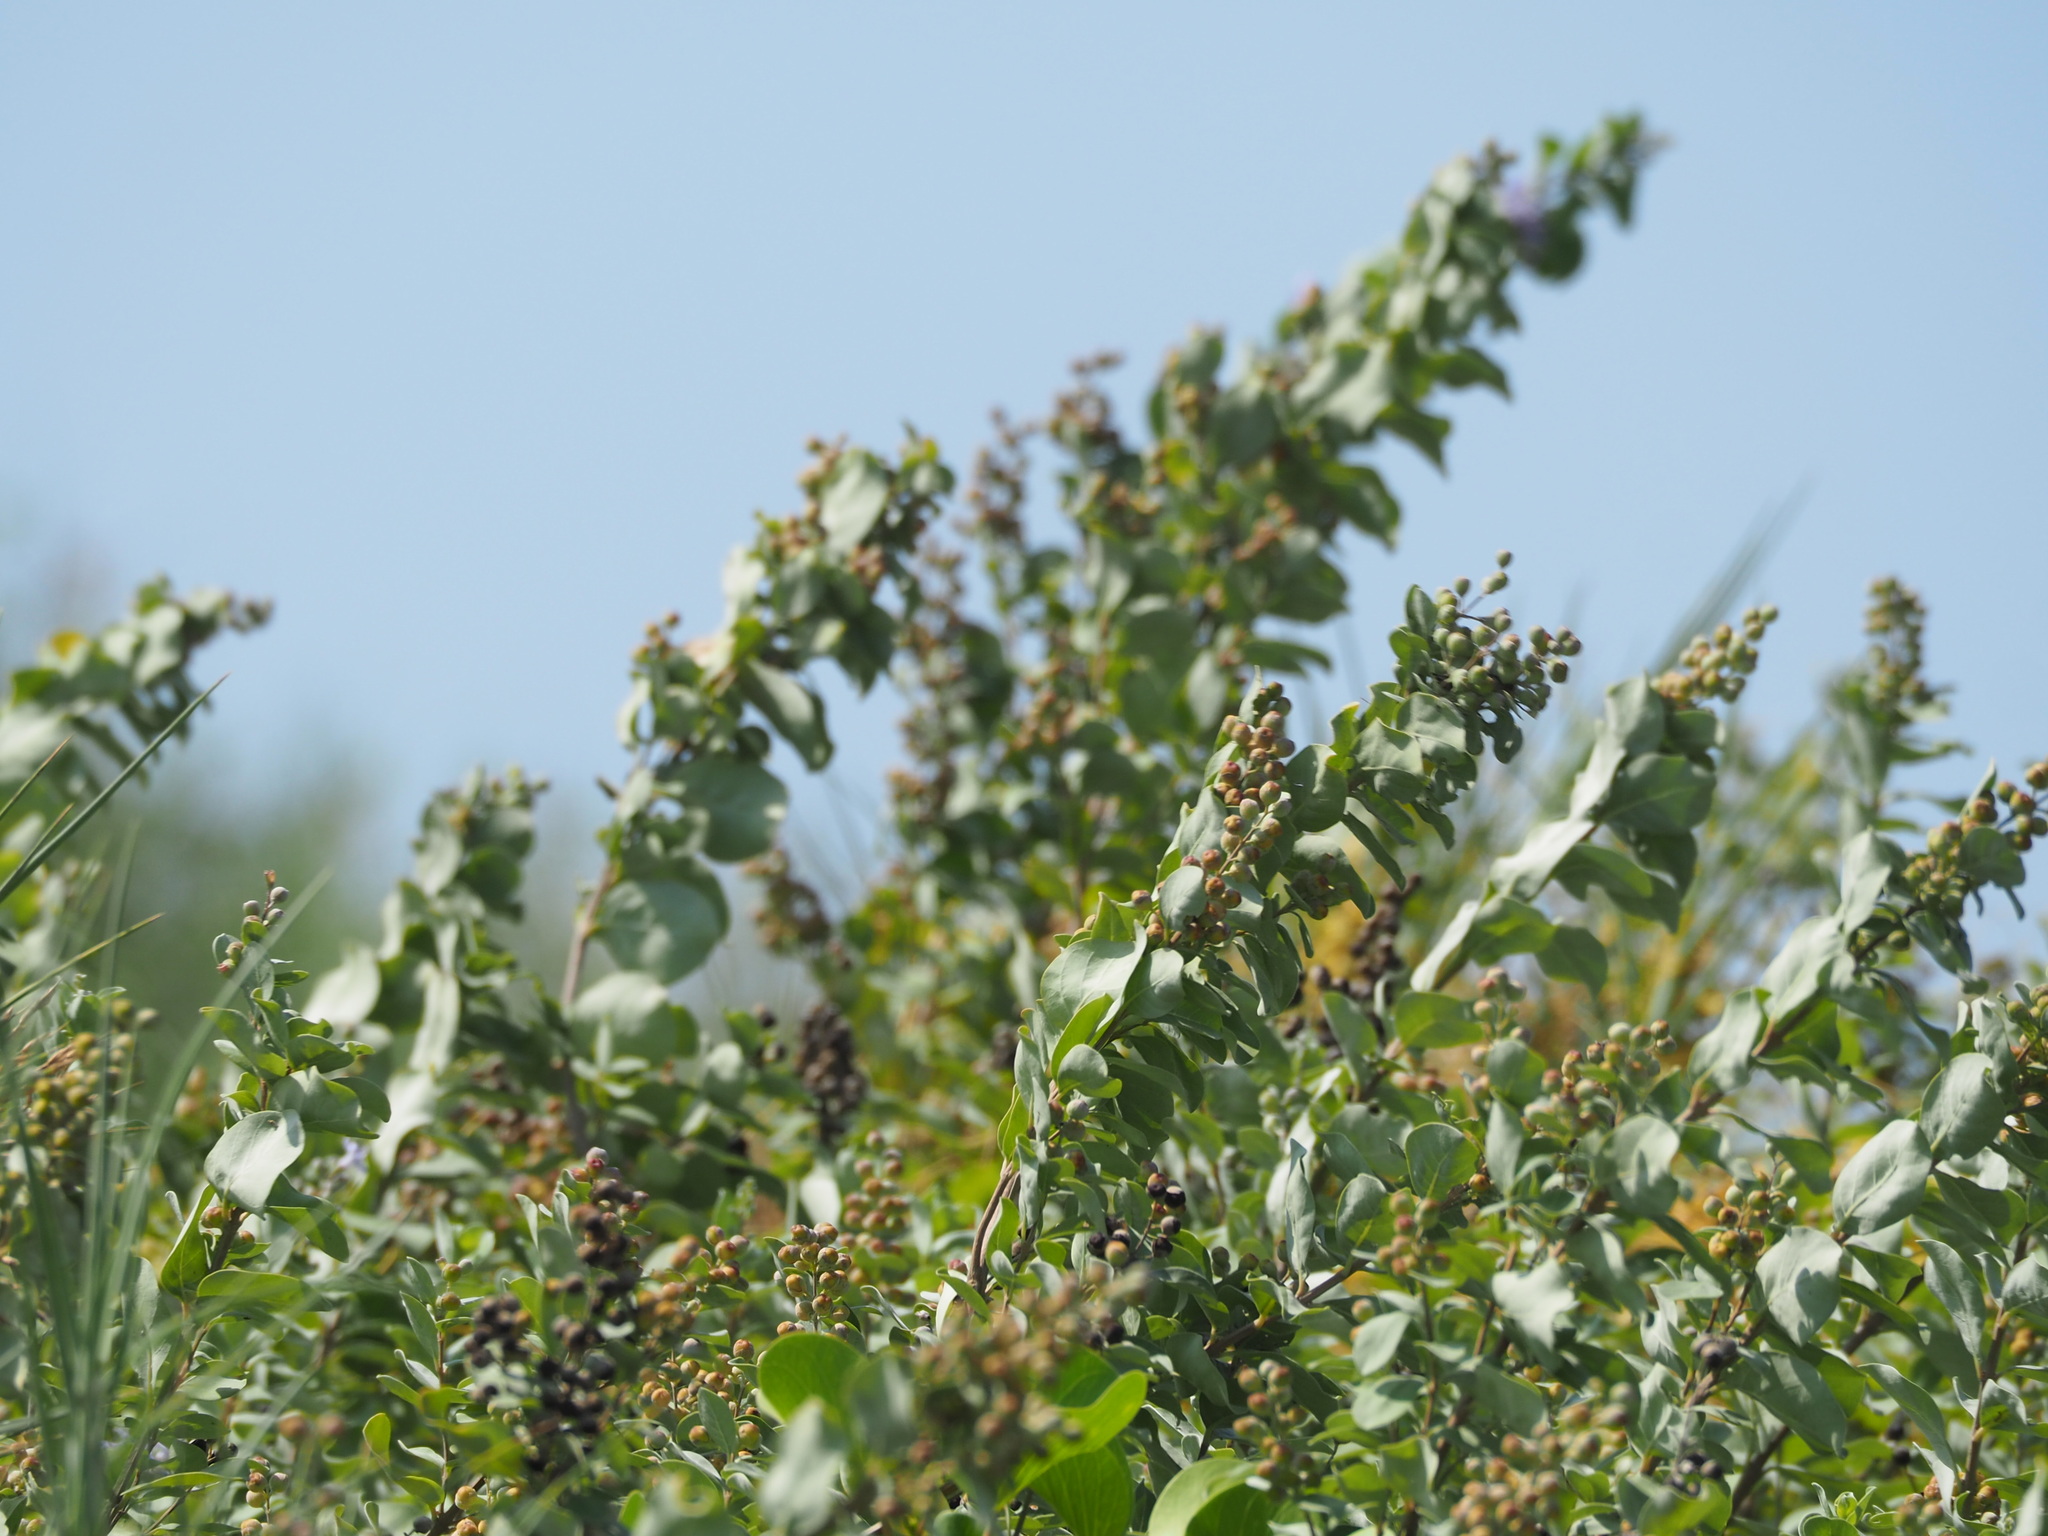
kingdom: Plantae
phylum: Tracheophyta
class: Magnoliopsida
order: Lamiales
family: Lamiaceae
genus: Vitex
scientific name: Vitex rotundifolia
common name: Beach vitex
